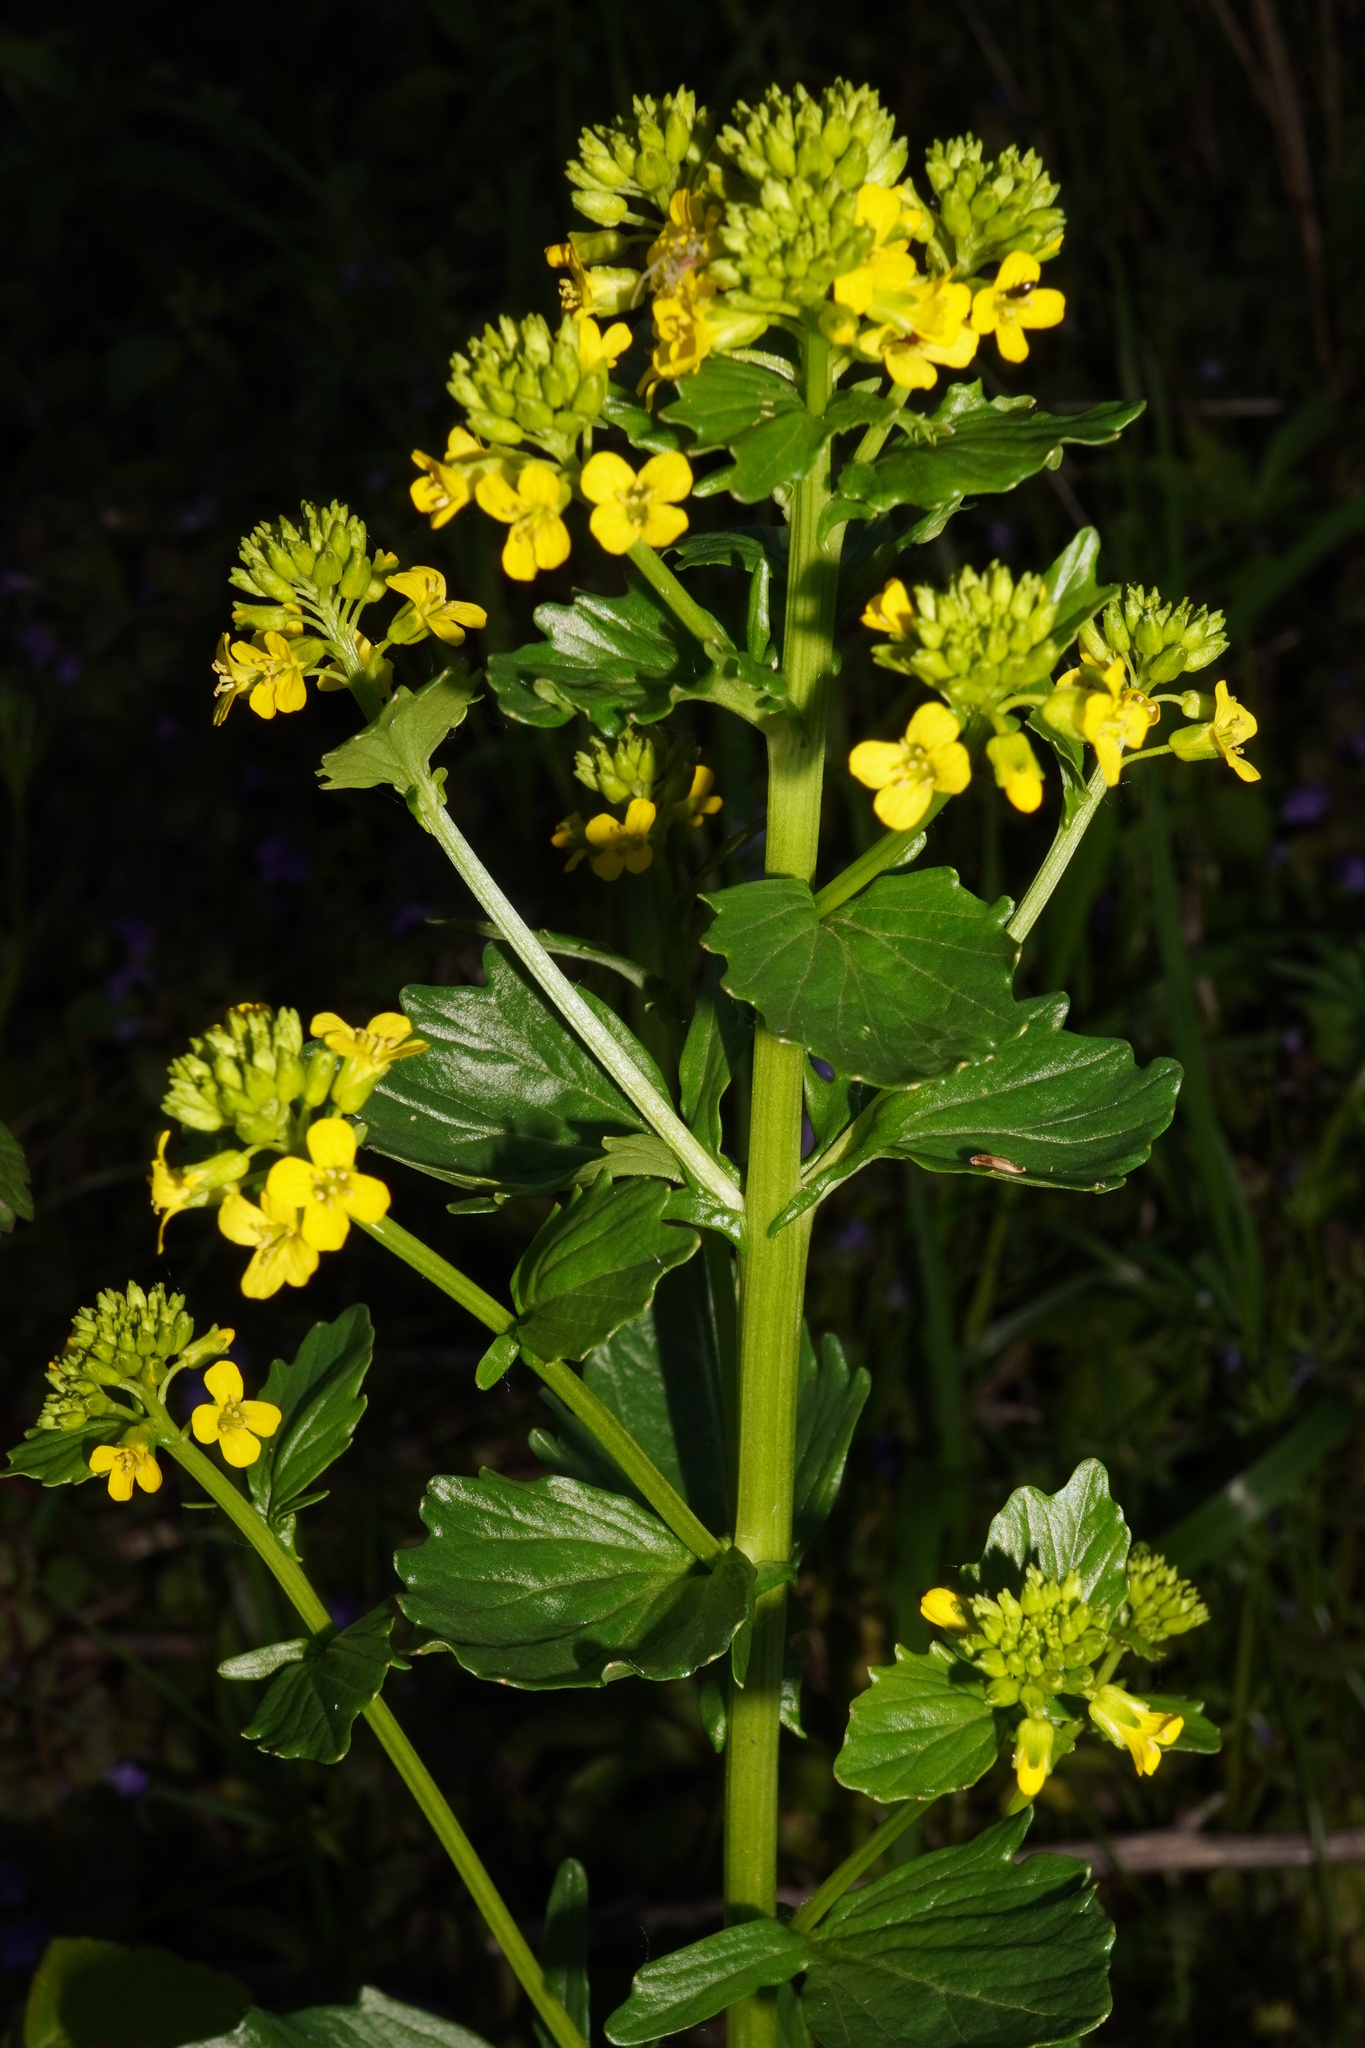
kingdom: Plantae
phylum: Tracheophyta
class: Magnoliopsida
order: Brassicales
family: Brassicaceae
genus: Barbarea
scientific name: Barbarea vulgaris
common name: Cressy-greens
